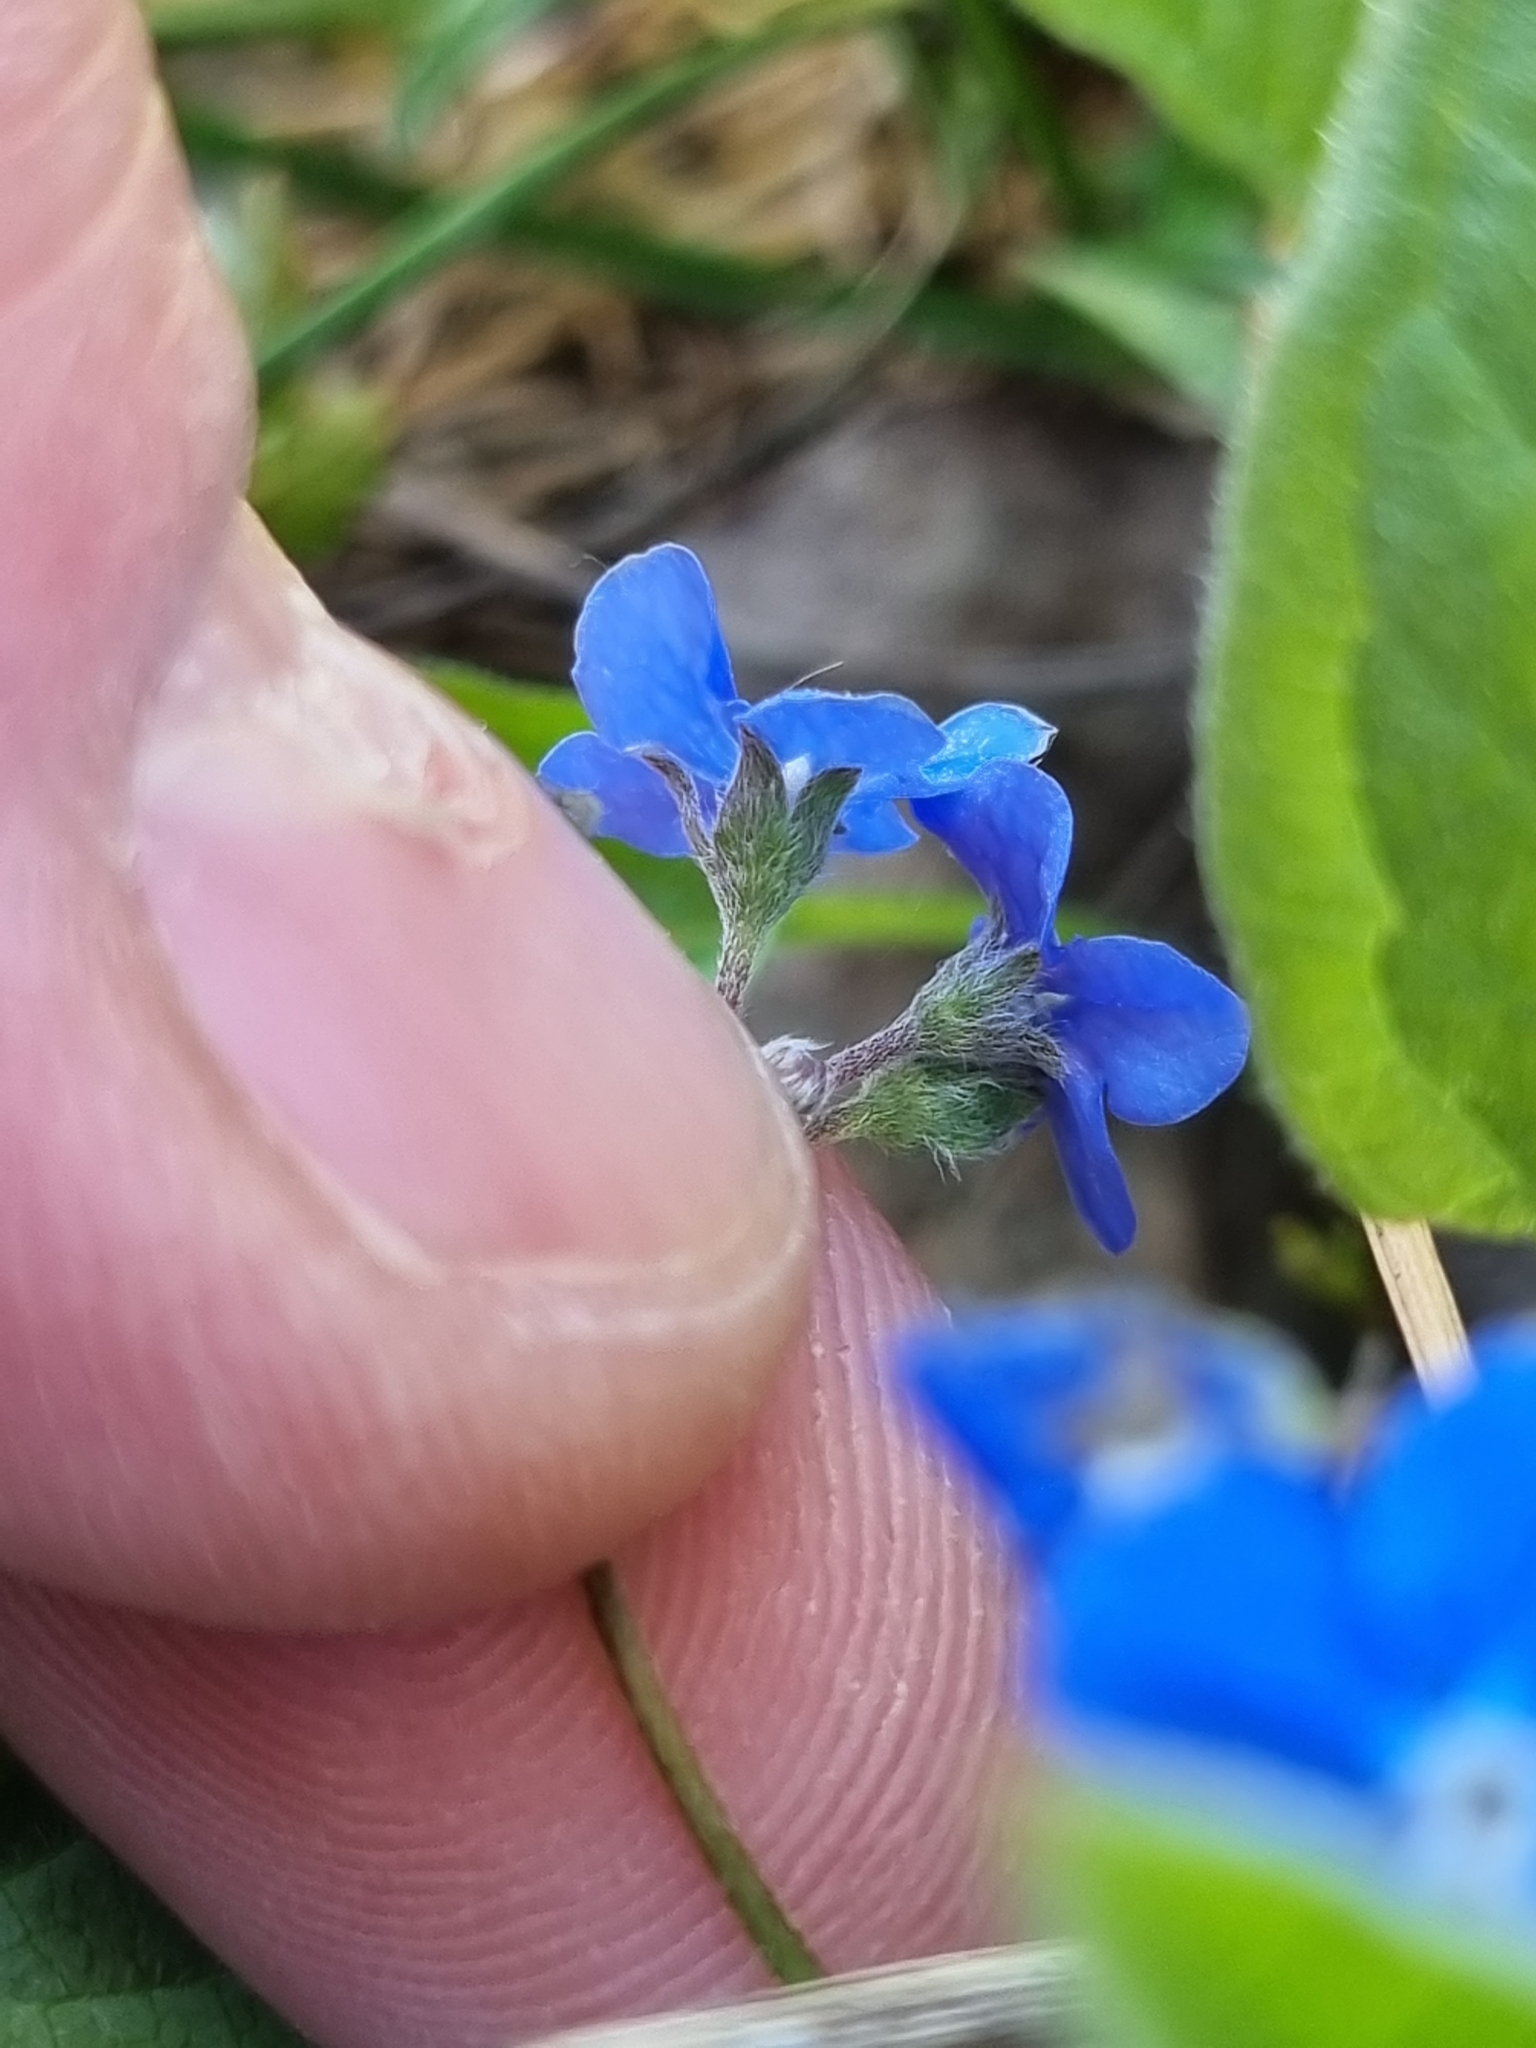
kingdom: Plantae
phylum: Tracheophyta
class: Magnoliopsida
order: Boraginales
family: Boraginaceae
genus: Omphalodes
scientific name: Omphalodes verna
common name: Blue-eyed-mary
